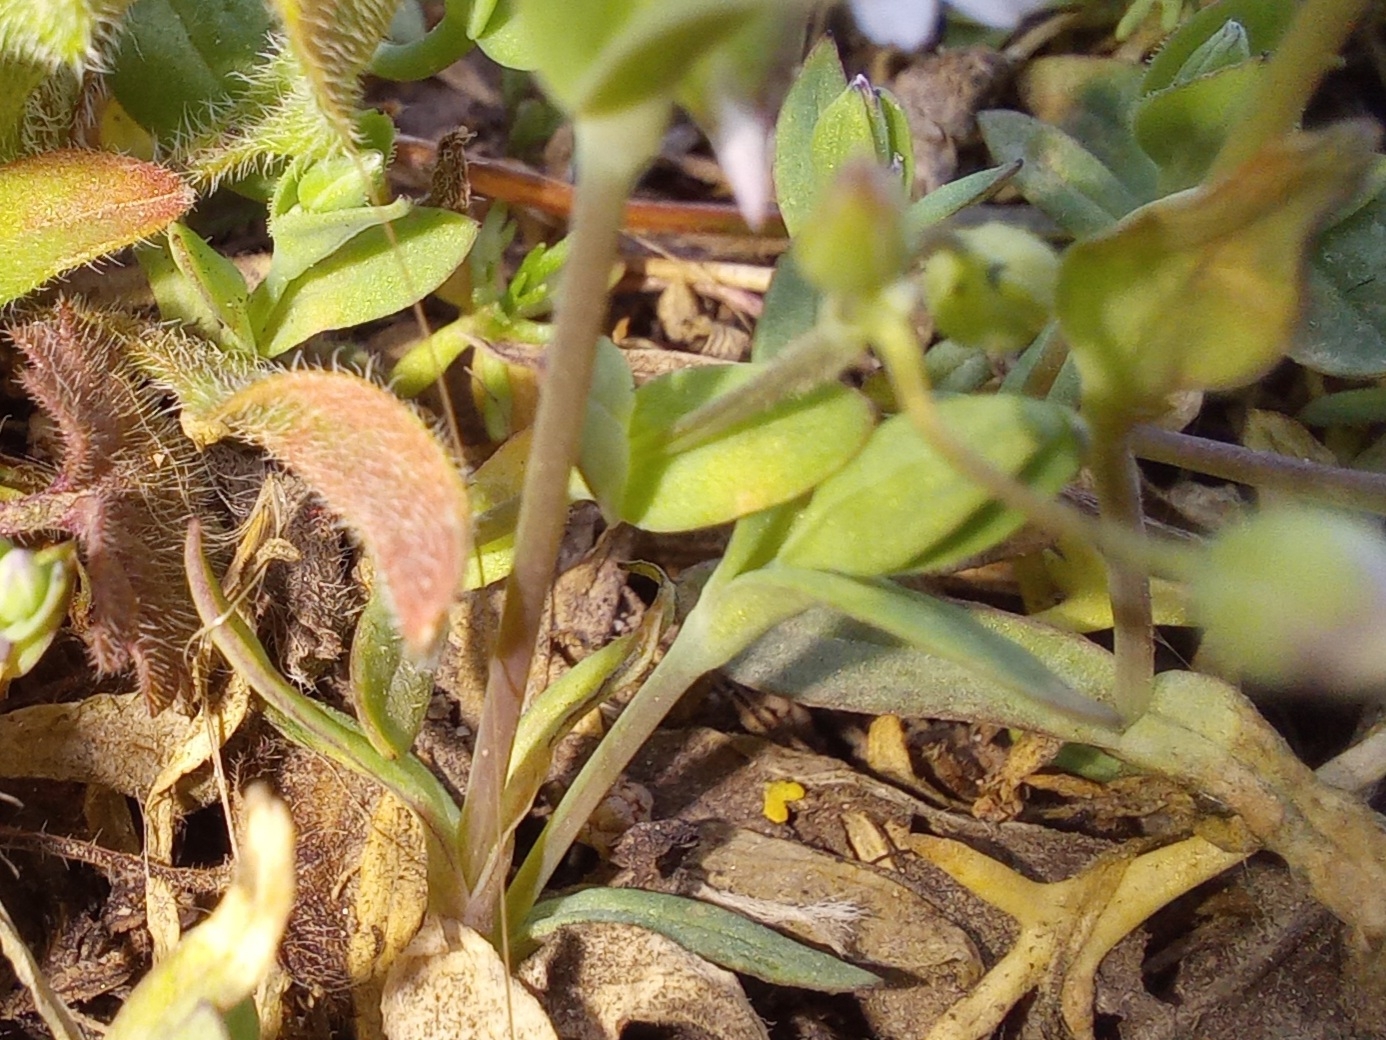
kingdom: Plantae
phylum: Tracheophyta
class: Magnoliopsida
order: Caryophyllales
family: Caryophyllaceae
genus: Holosteum
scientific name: Holosteum umbellatum
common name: Jagged chickweed
